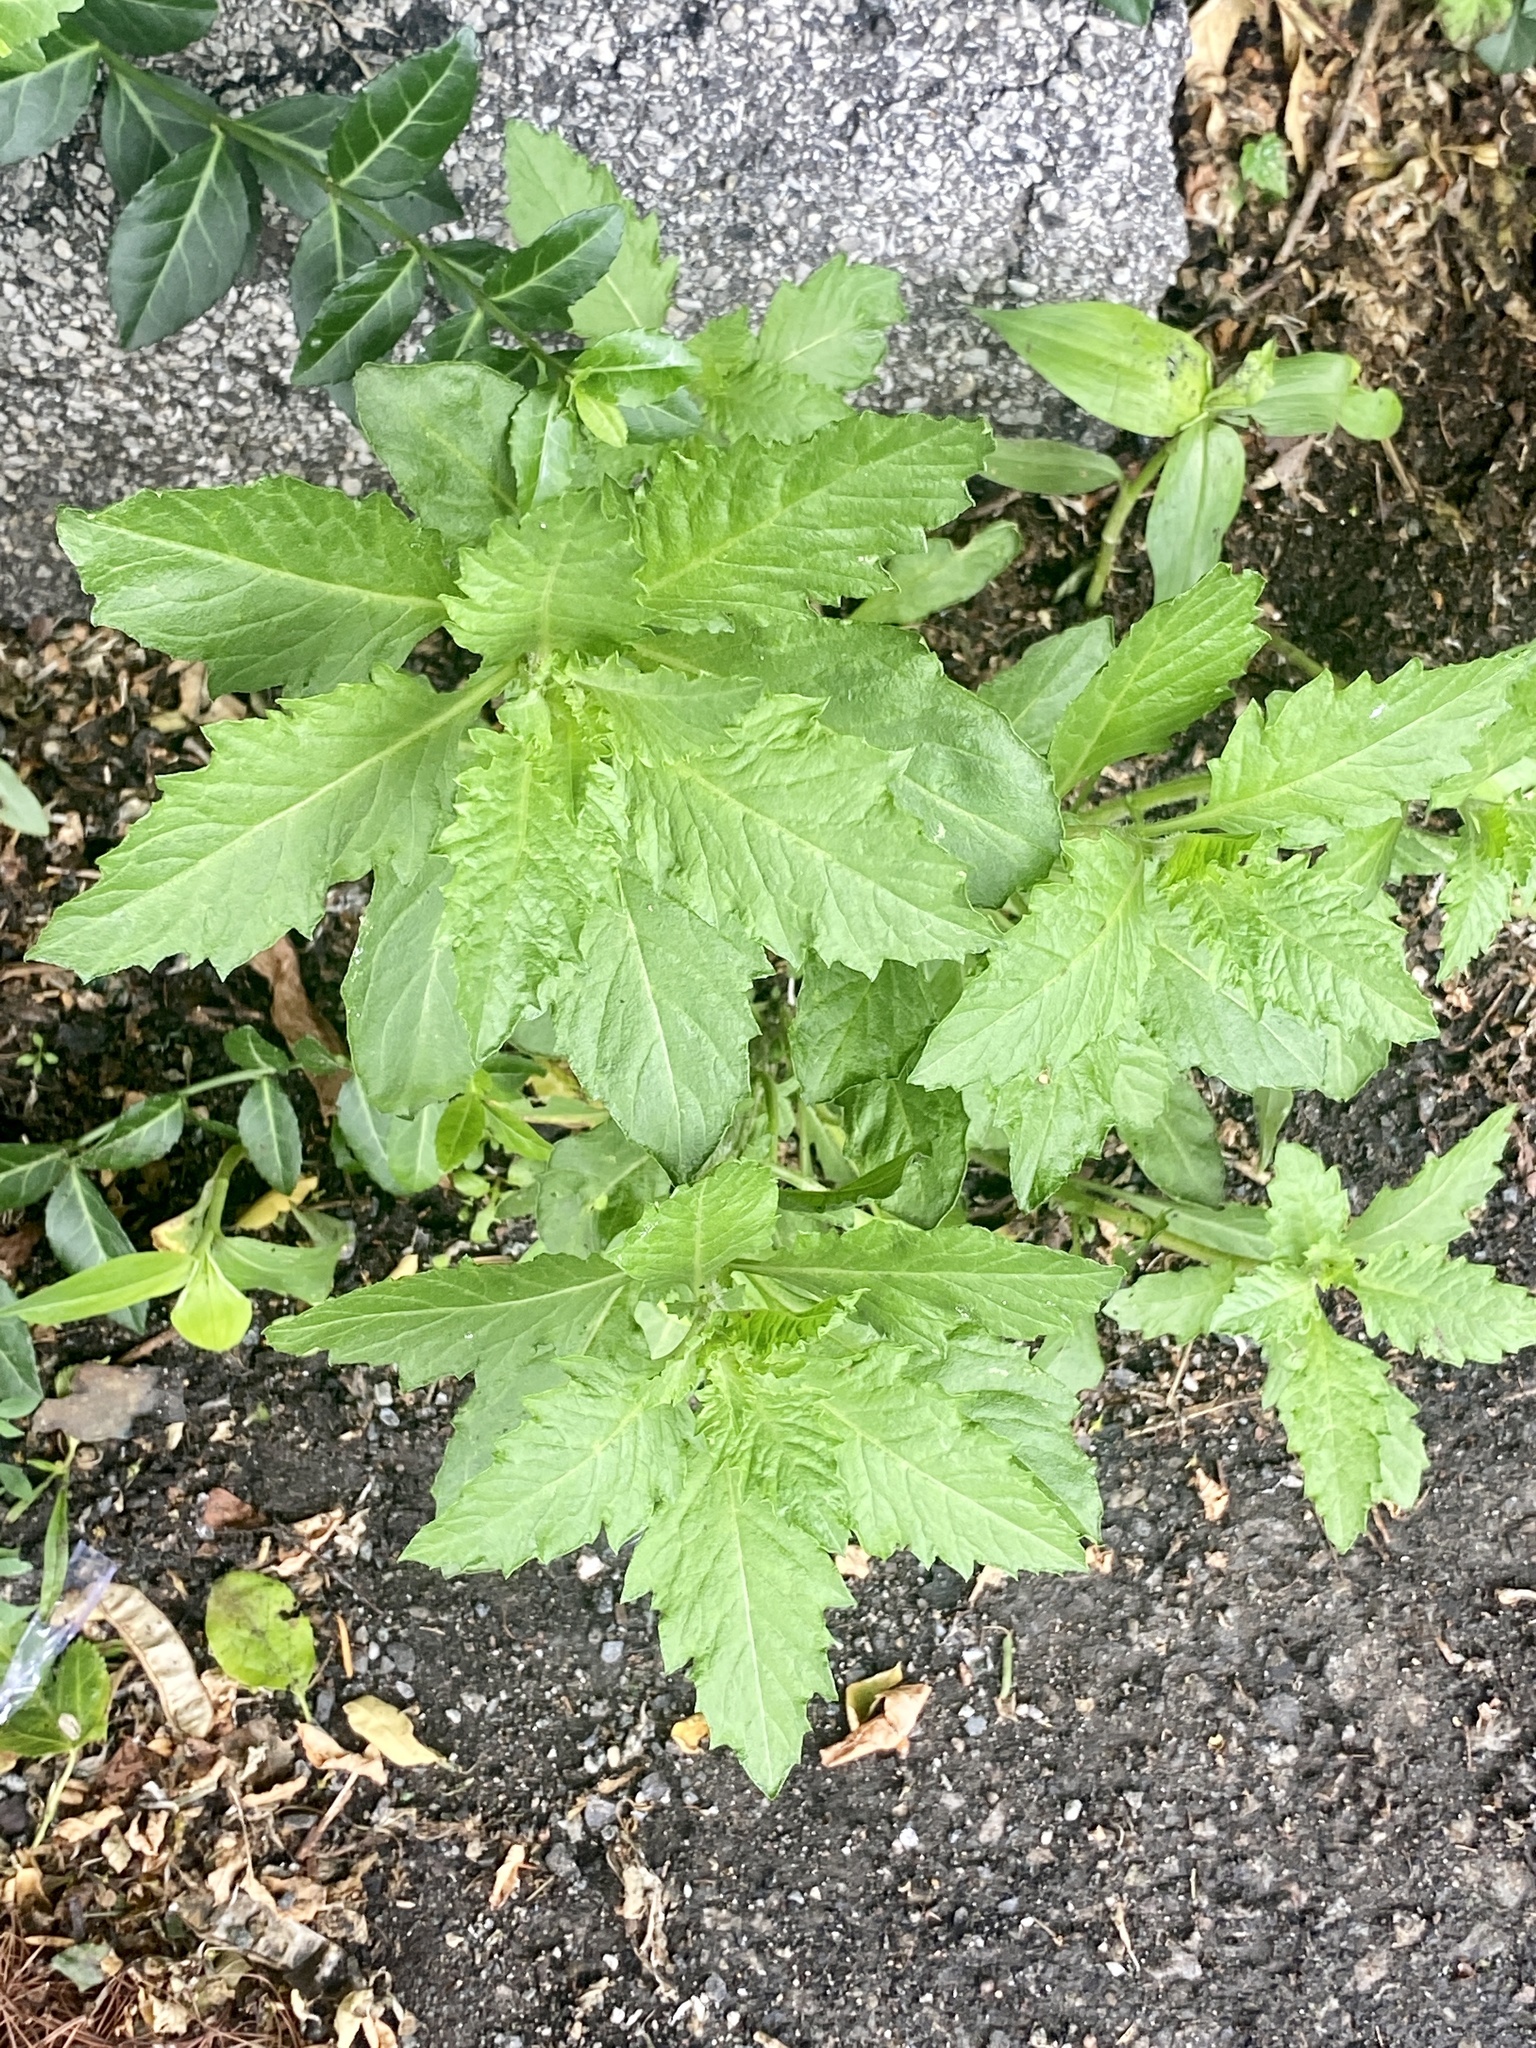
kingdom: Plantae
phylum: Tracheophyta
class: Magnoliopsida
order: Caryophyllales
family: Amaranthaceae
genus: Dysphania
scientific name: Dysphania ambrosioides
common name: Wormseed
